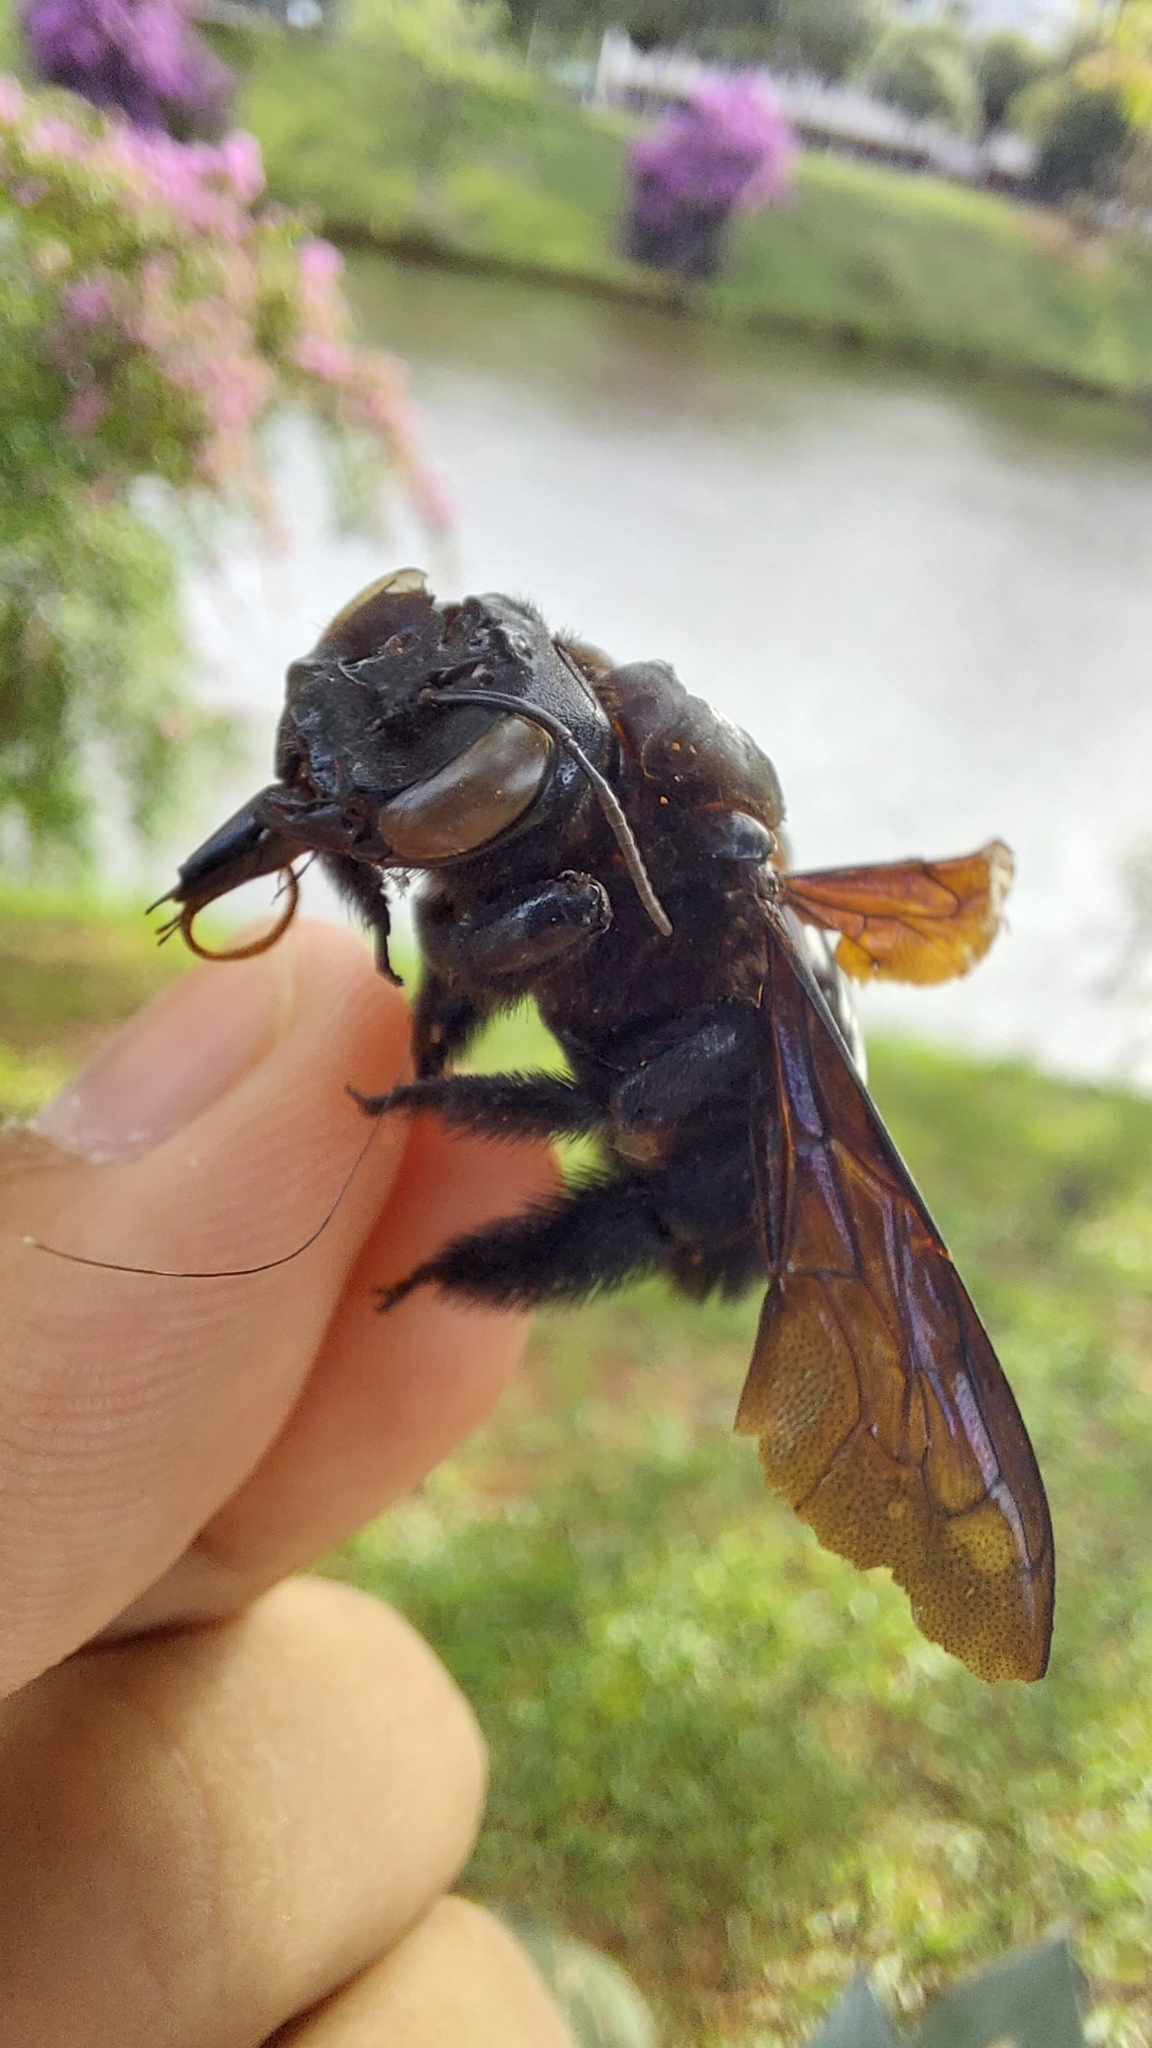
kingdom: Animalia
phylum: Arthropoda
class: Insecta
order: Hymenoptera
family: Apidae
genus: Xylocopa
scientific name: Xylocopa frontalis
